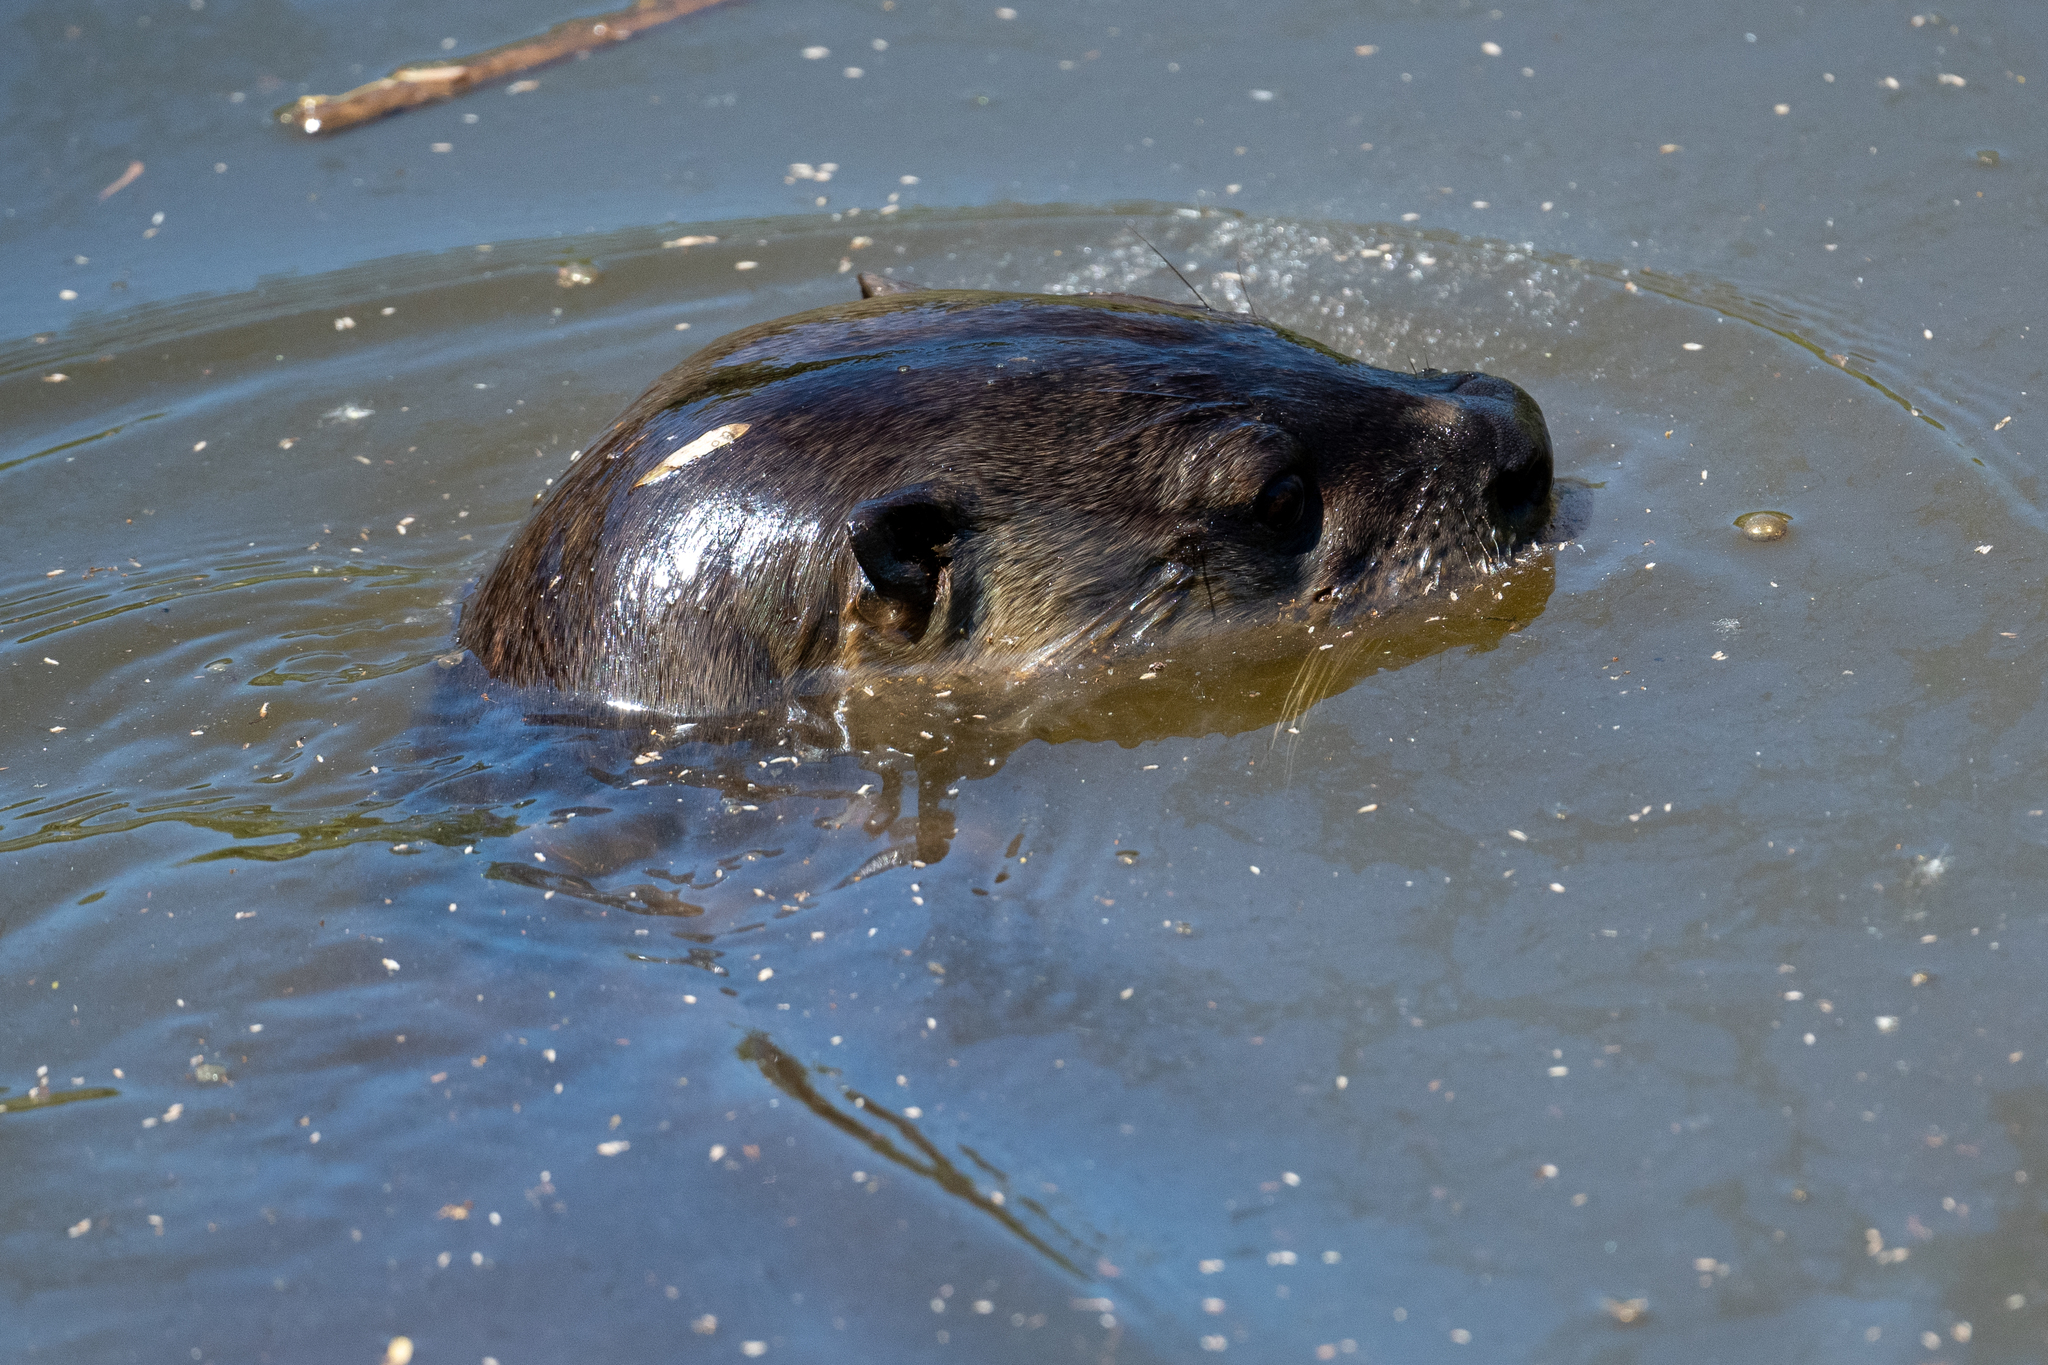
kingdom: Animalia
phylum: Chordata
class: Mammalia
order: Carnivora
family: Mustelidae
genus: Lontra
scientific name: Lontra canadensis
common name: North american river otter
